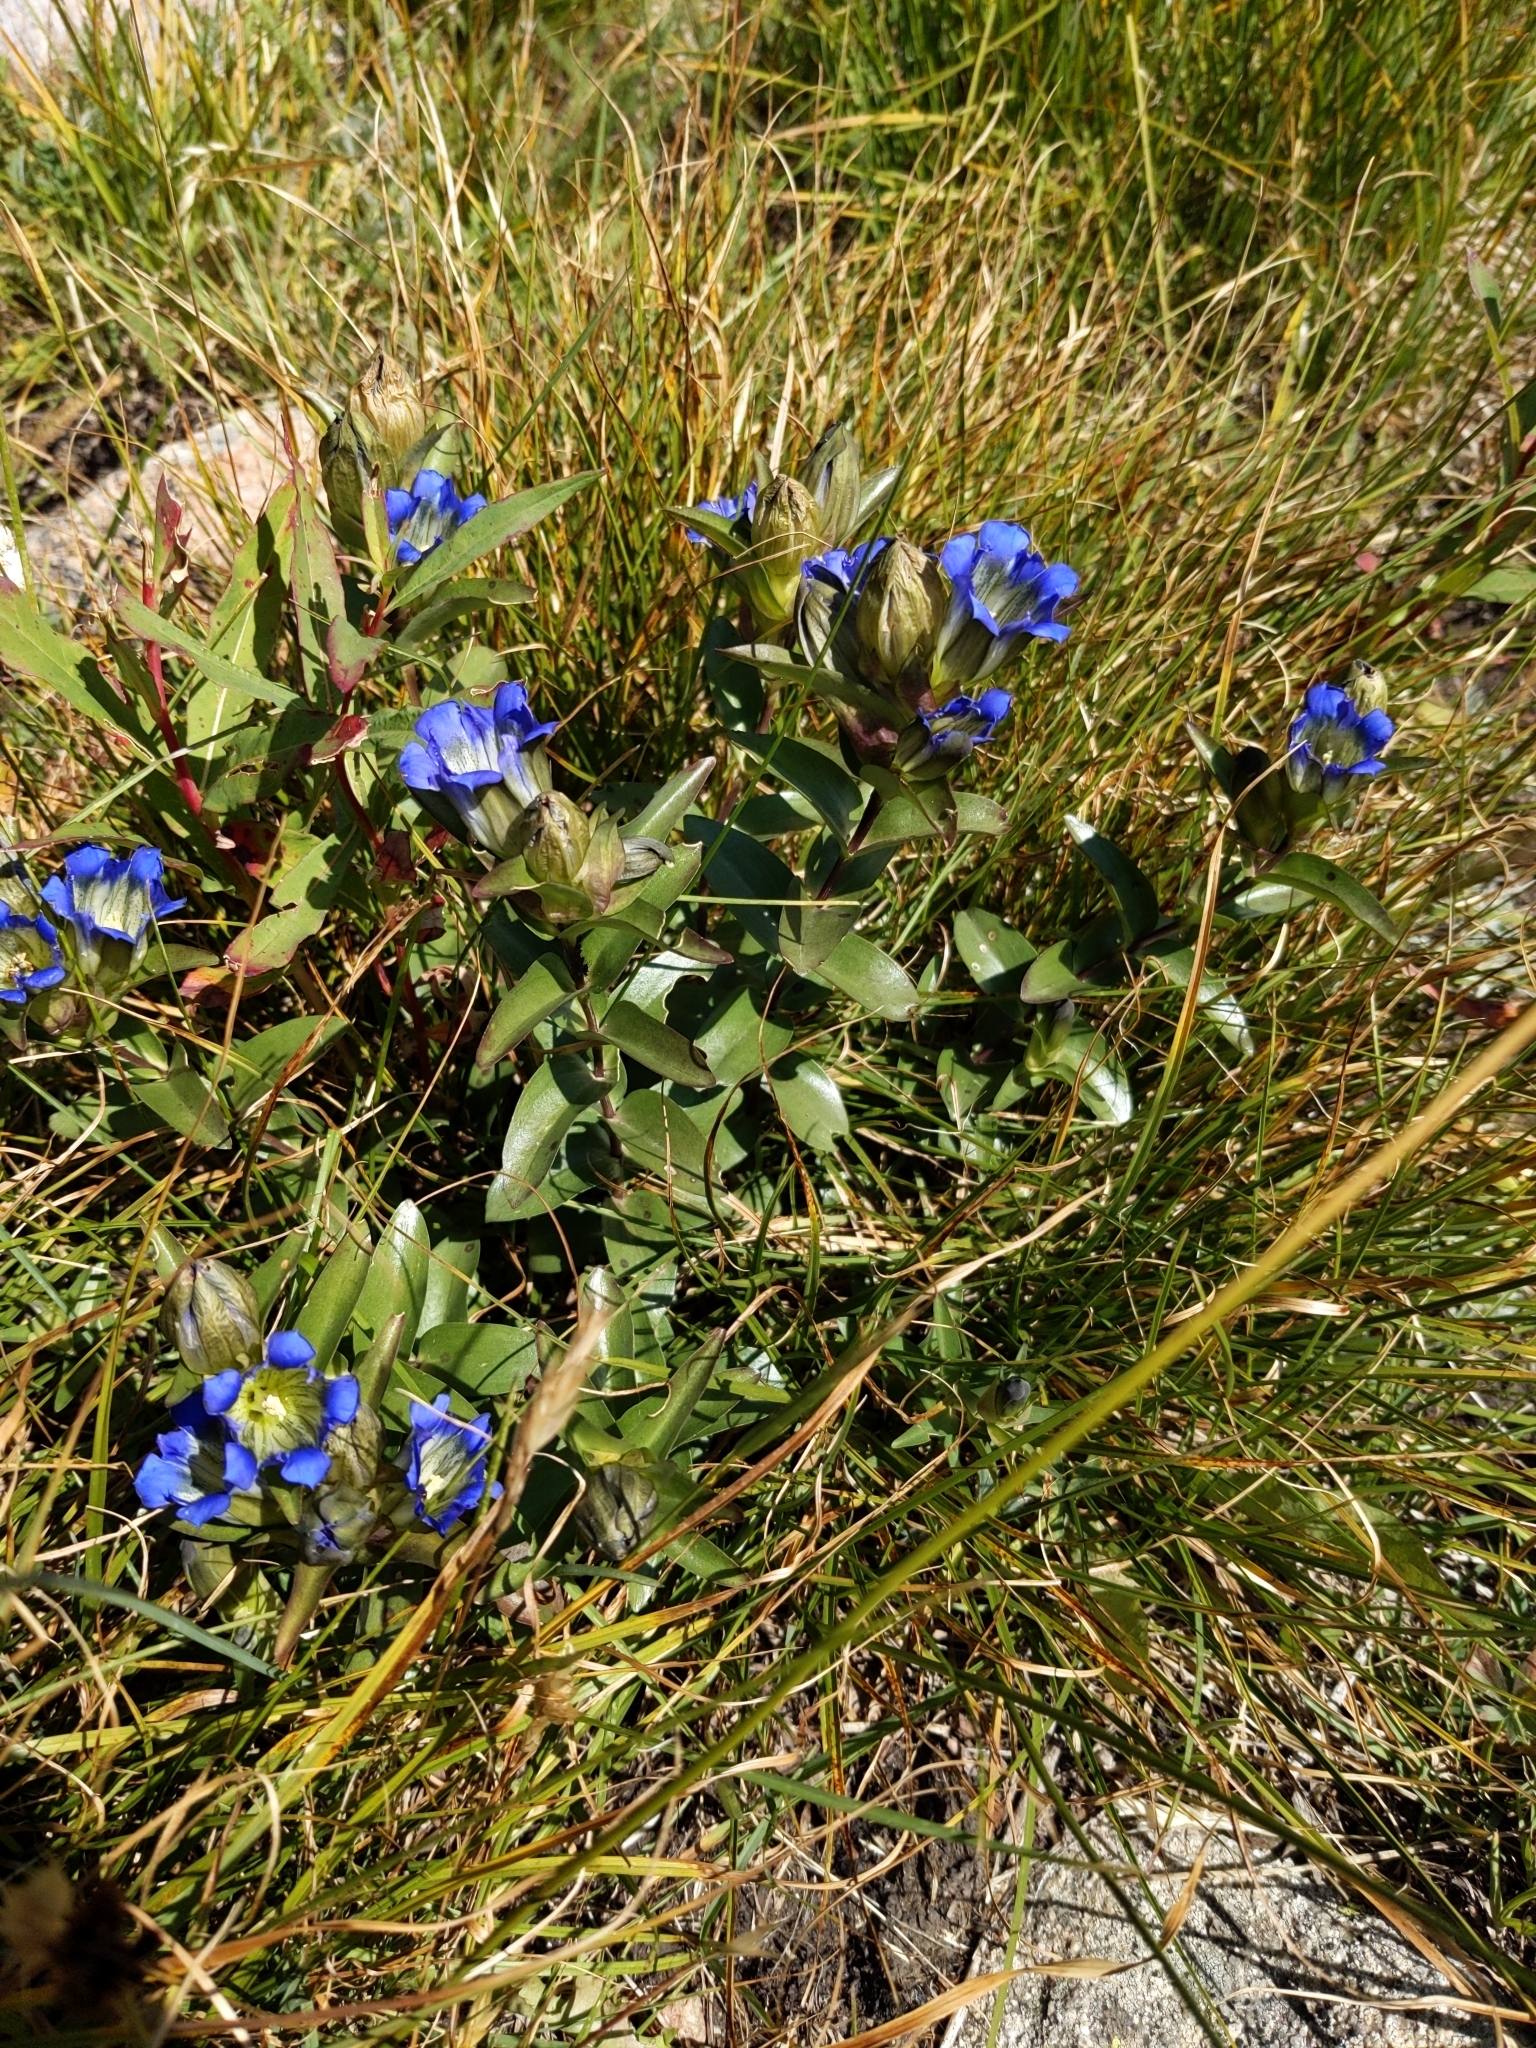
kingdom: Plantae
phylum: Tracheophyta
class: Magnoliopsida
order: Gentianales
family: Gentianaceae
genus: Gentiana
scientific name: Gentiana parryi
